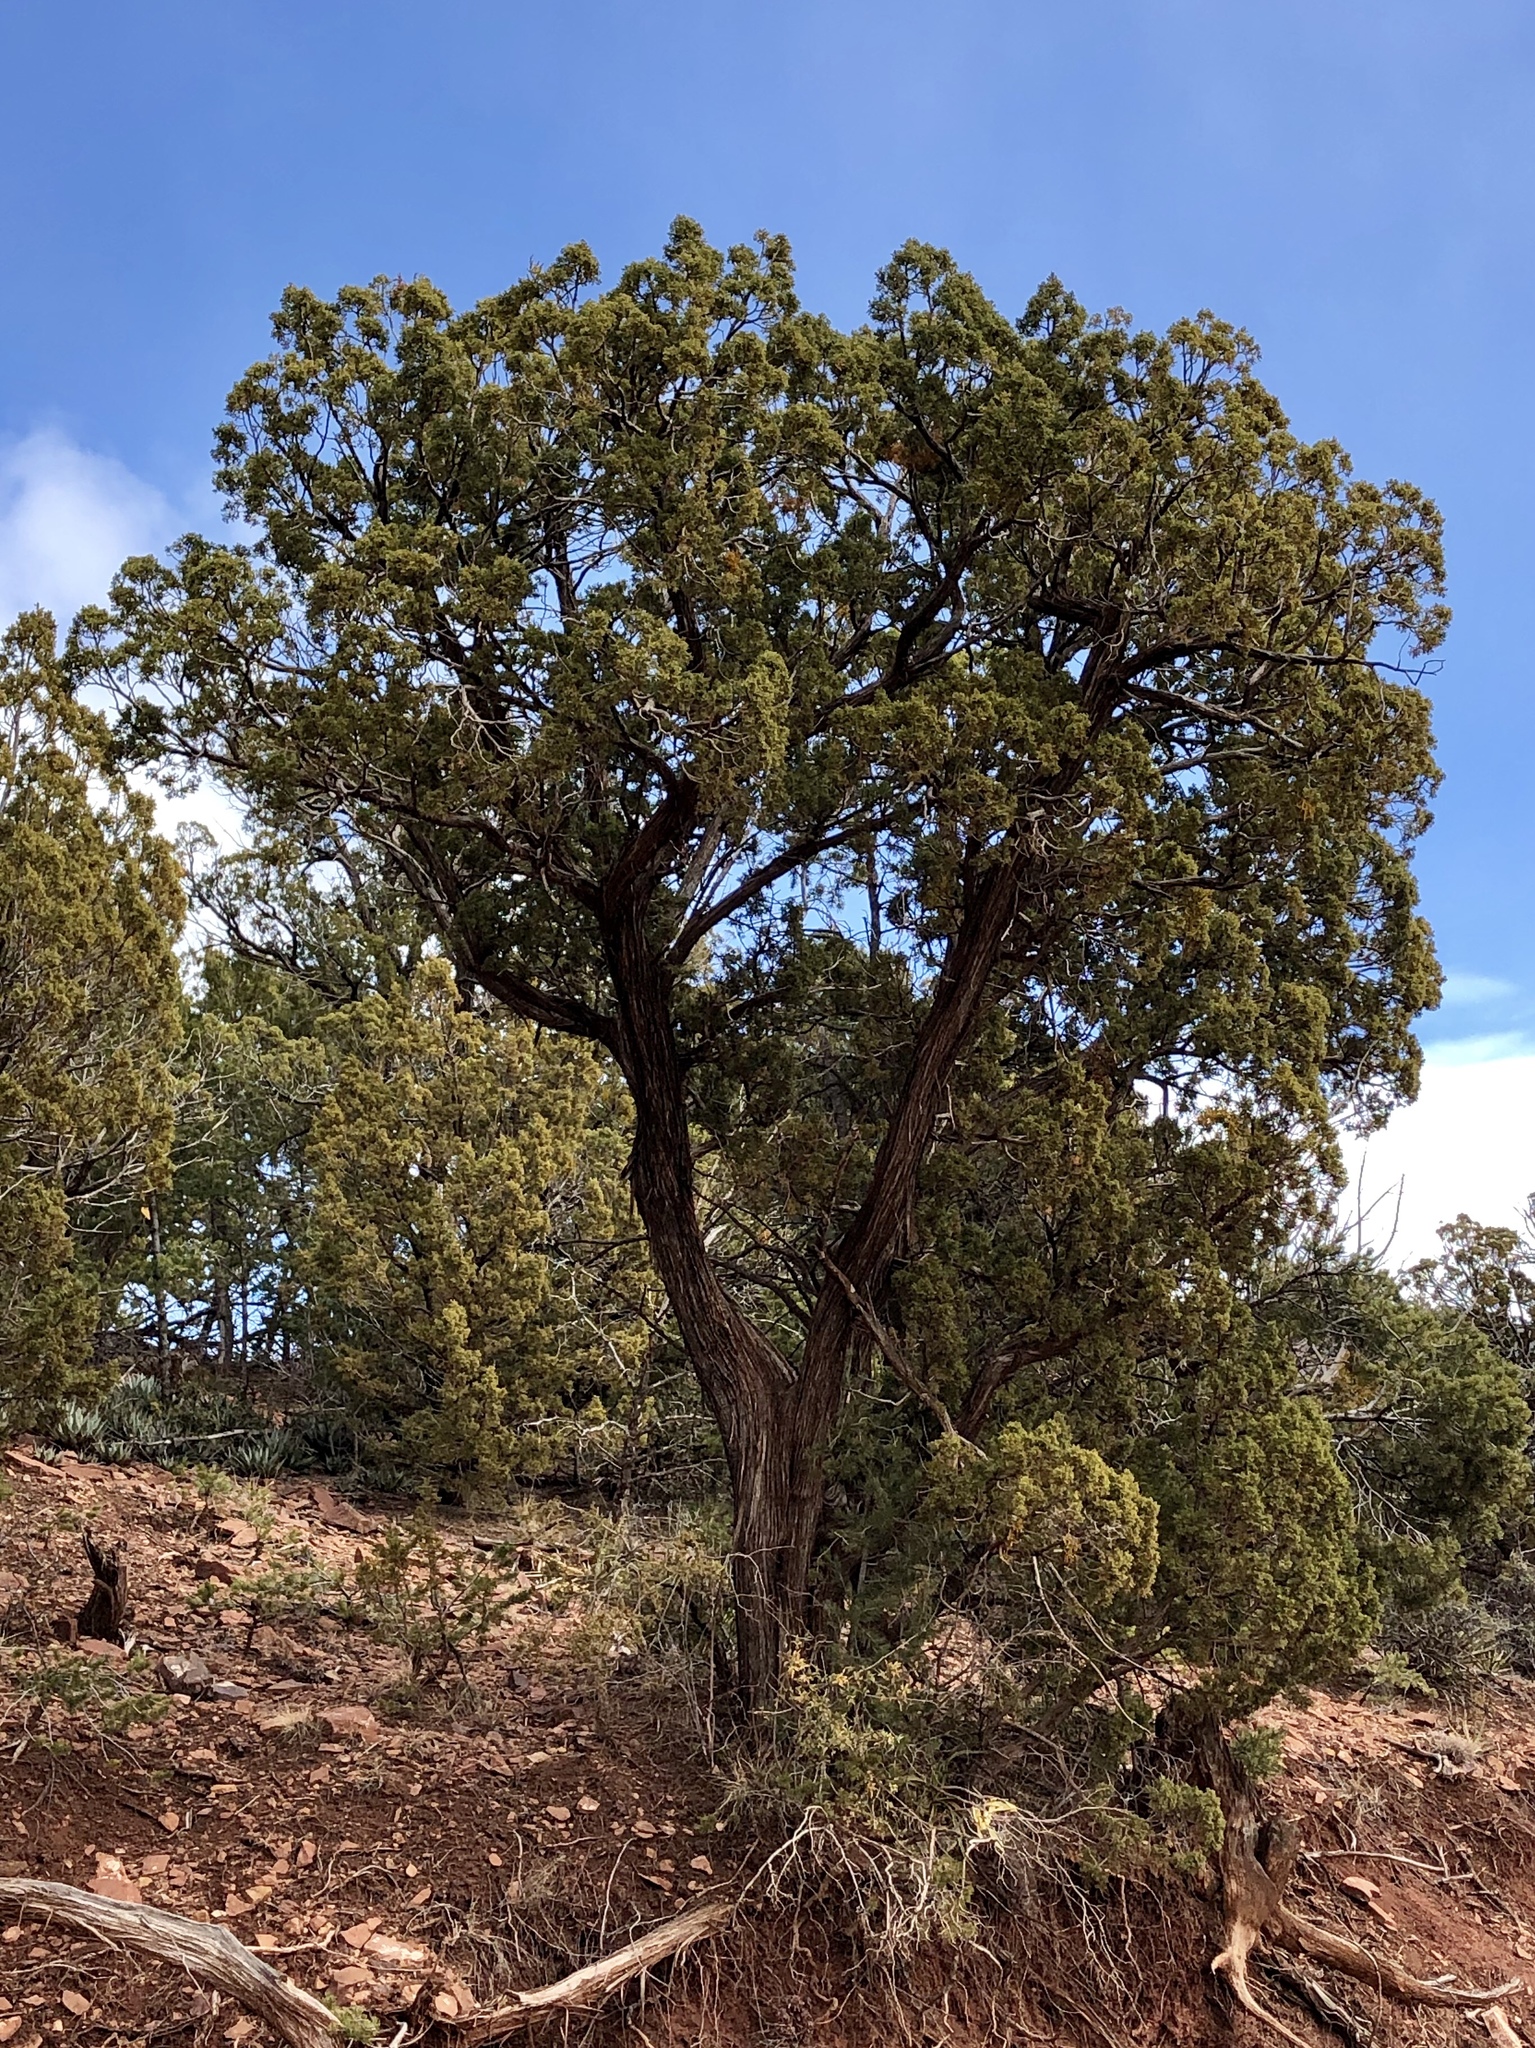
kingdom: Plantae
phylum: Tracheophyta
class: Pinopsida
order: Pinales
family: Cupressaceae
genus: Juniperus
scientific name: Juniperus monosperma
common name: One-seed juniper
